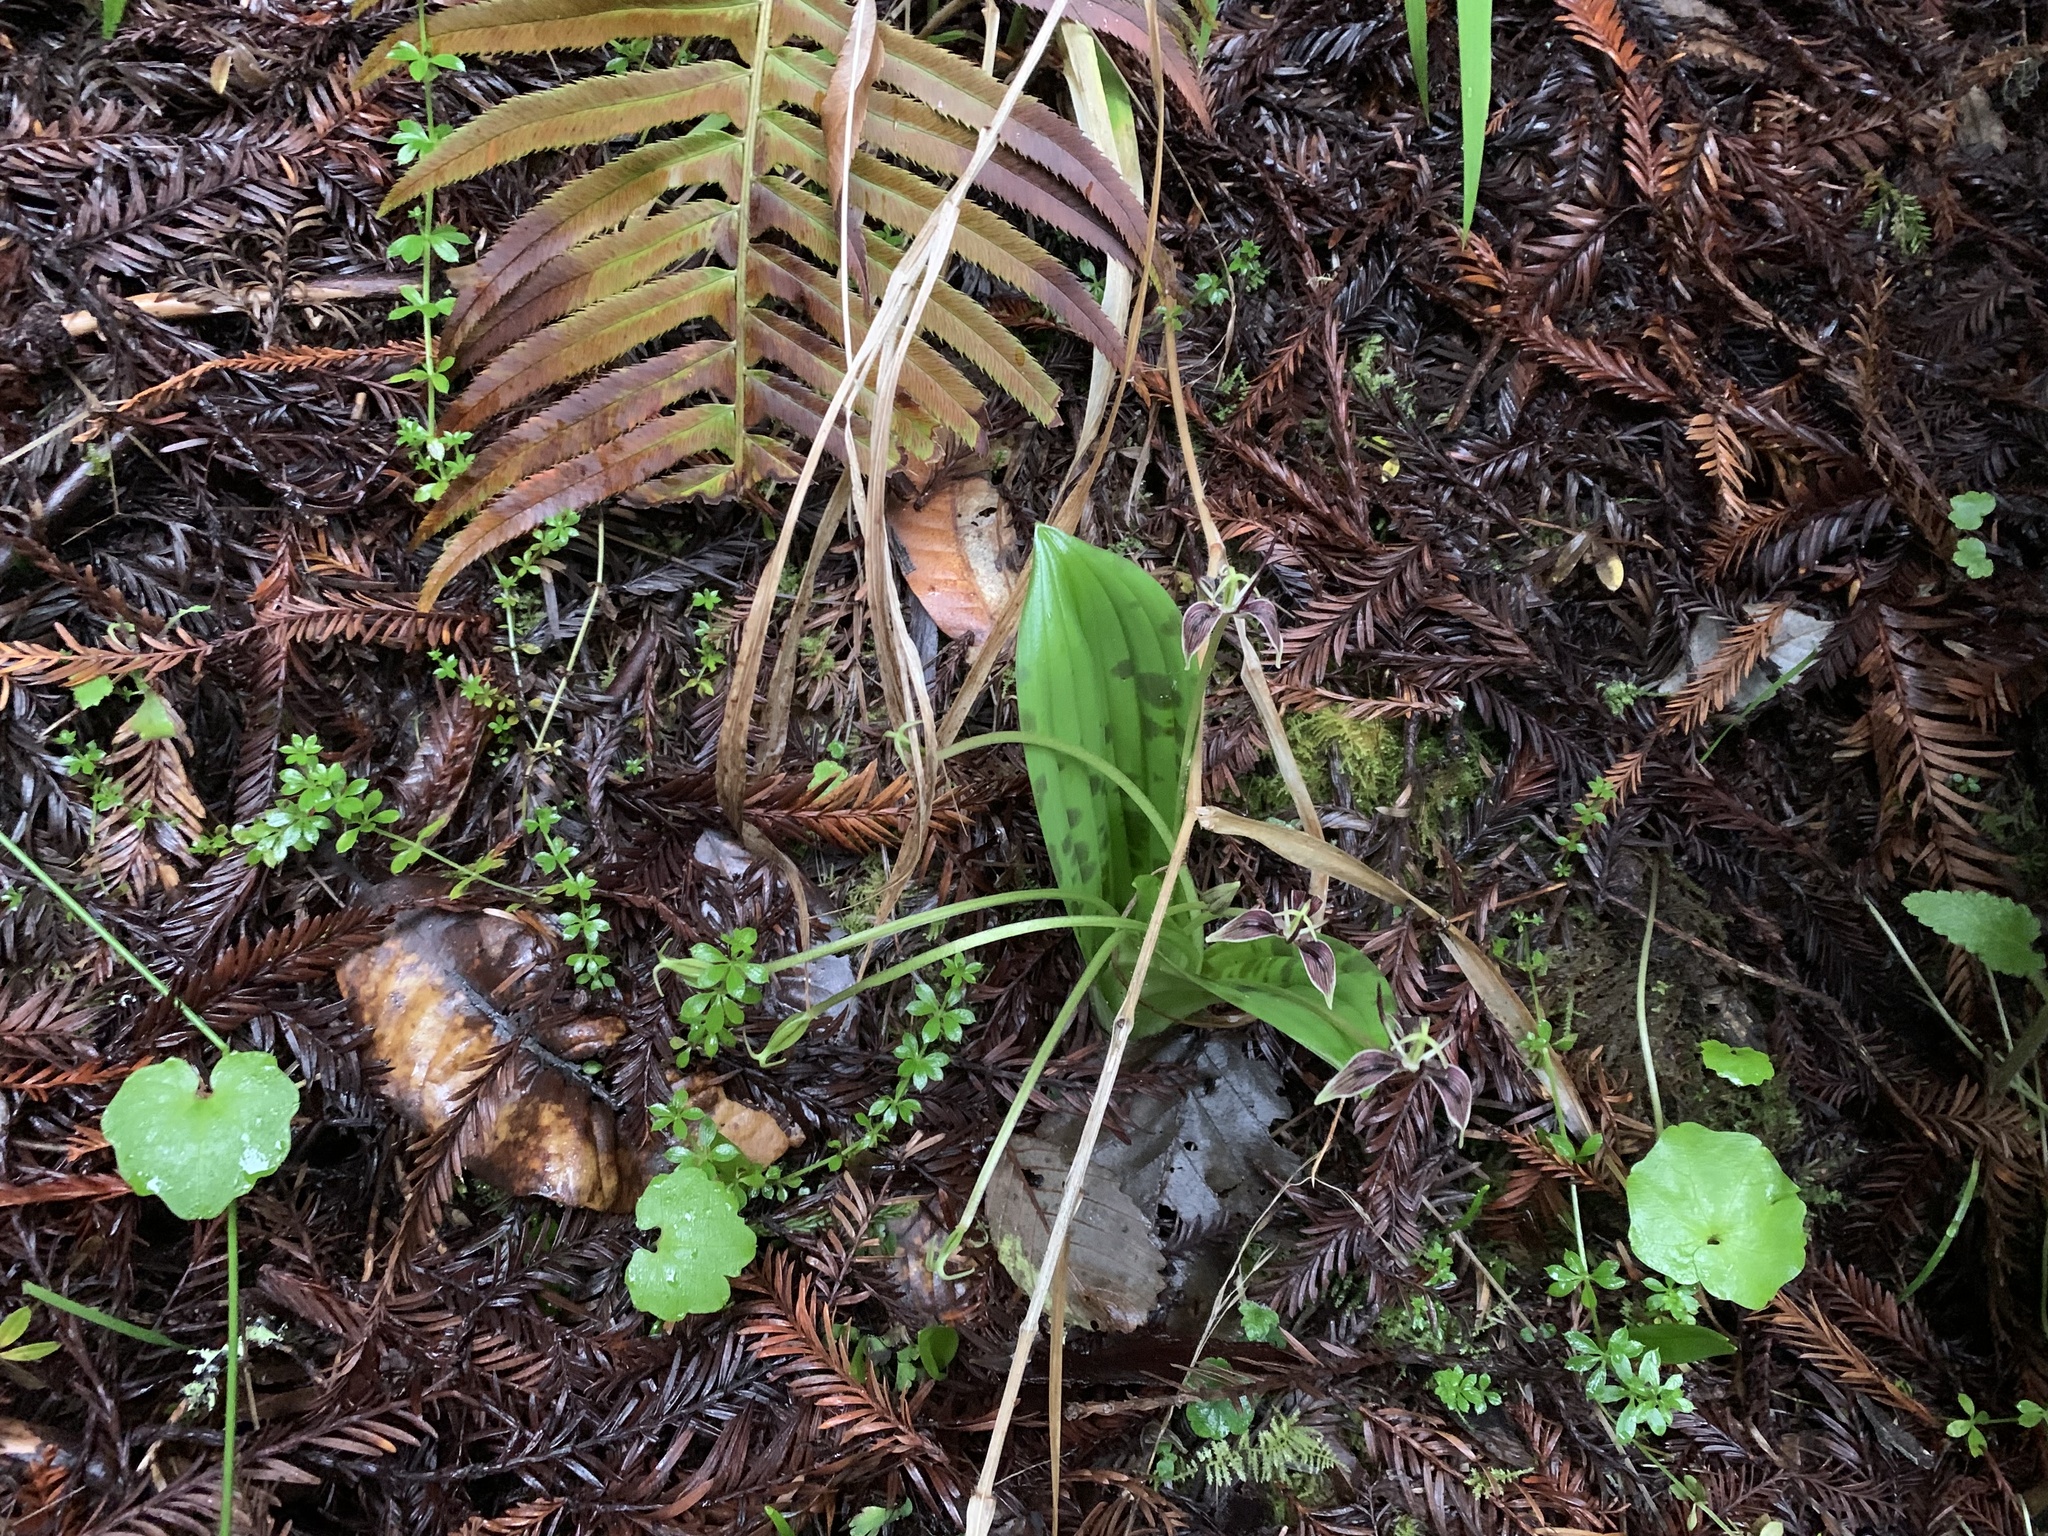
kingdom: Plantae
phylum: Tracheophyta
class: Liliopsida
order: Liliales
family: Liliaceae
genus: Scoliopus
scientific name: Scoliopus bigelovii
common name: Foetid adder's-tongue
